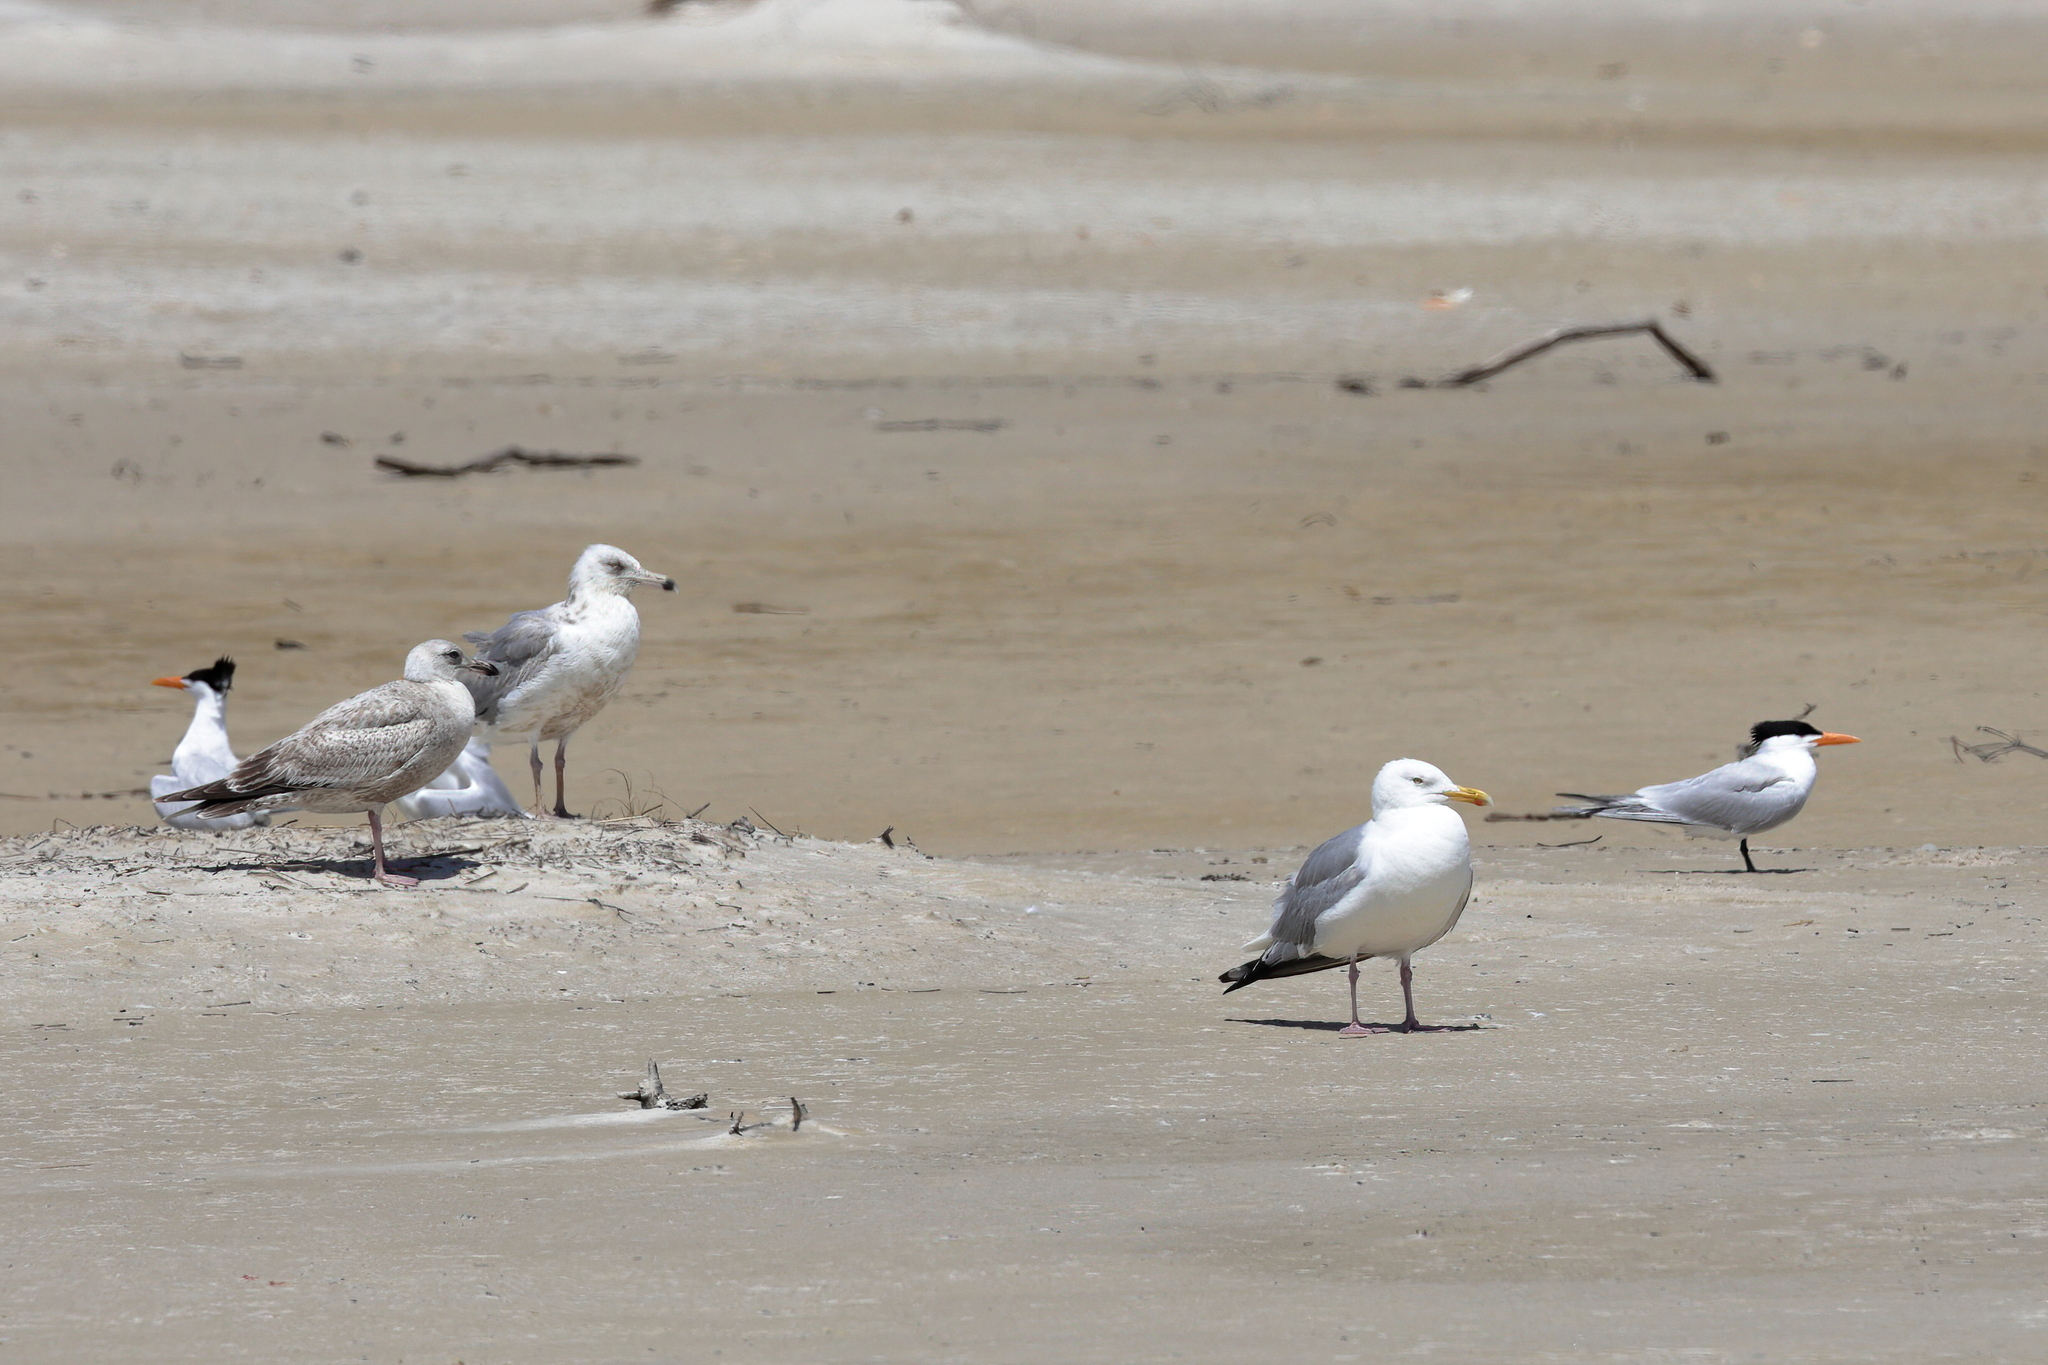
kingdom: Animalia
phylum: Chordata
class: Aves
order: Charadriiformes
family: Laridae
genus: Larus
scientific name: Larus argentatus
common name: Herring gull
